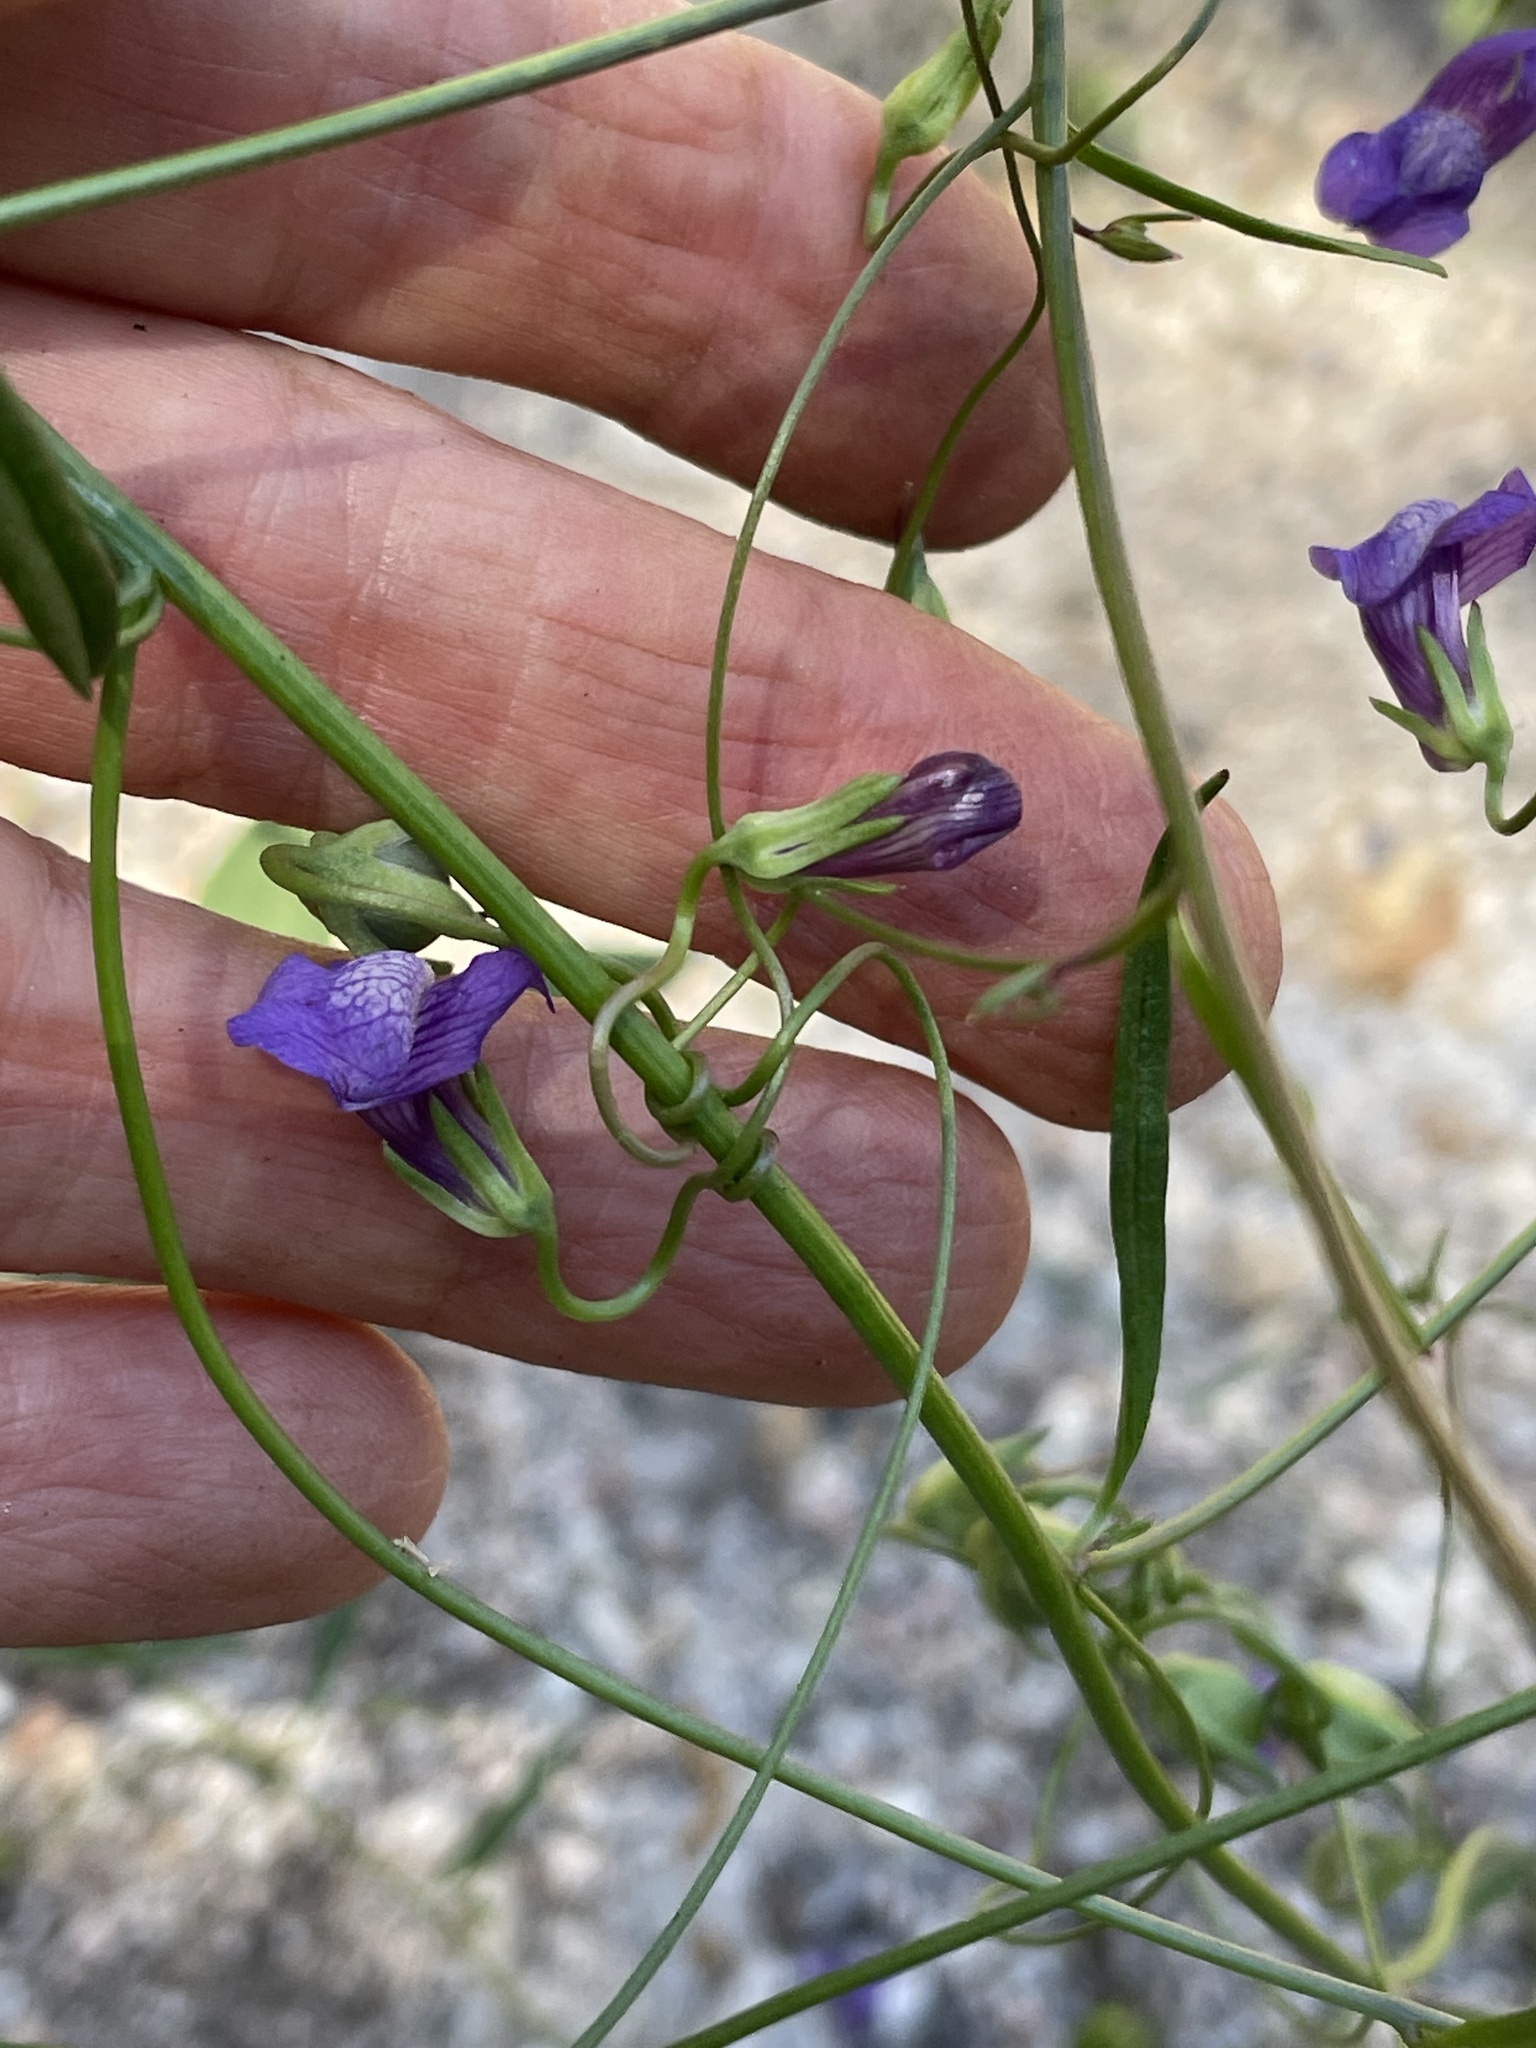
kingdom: Plantae
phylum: Tracheophyta
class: Magnoliopsida
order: Lamiales
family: Plantaginaceae
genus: Neogaerrhinum
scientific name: Neogaerrhinum strictum
